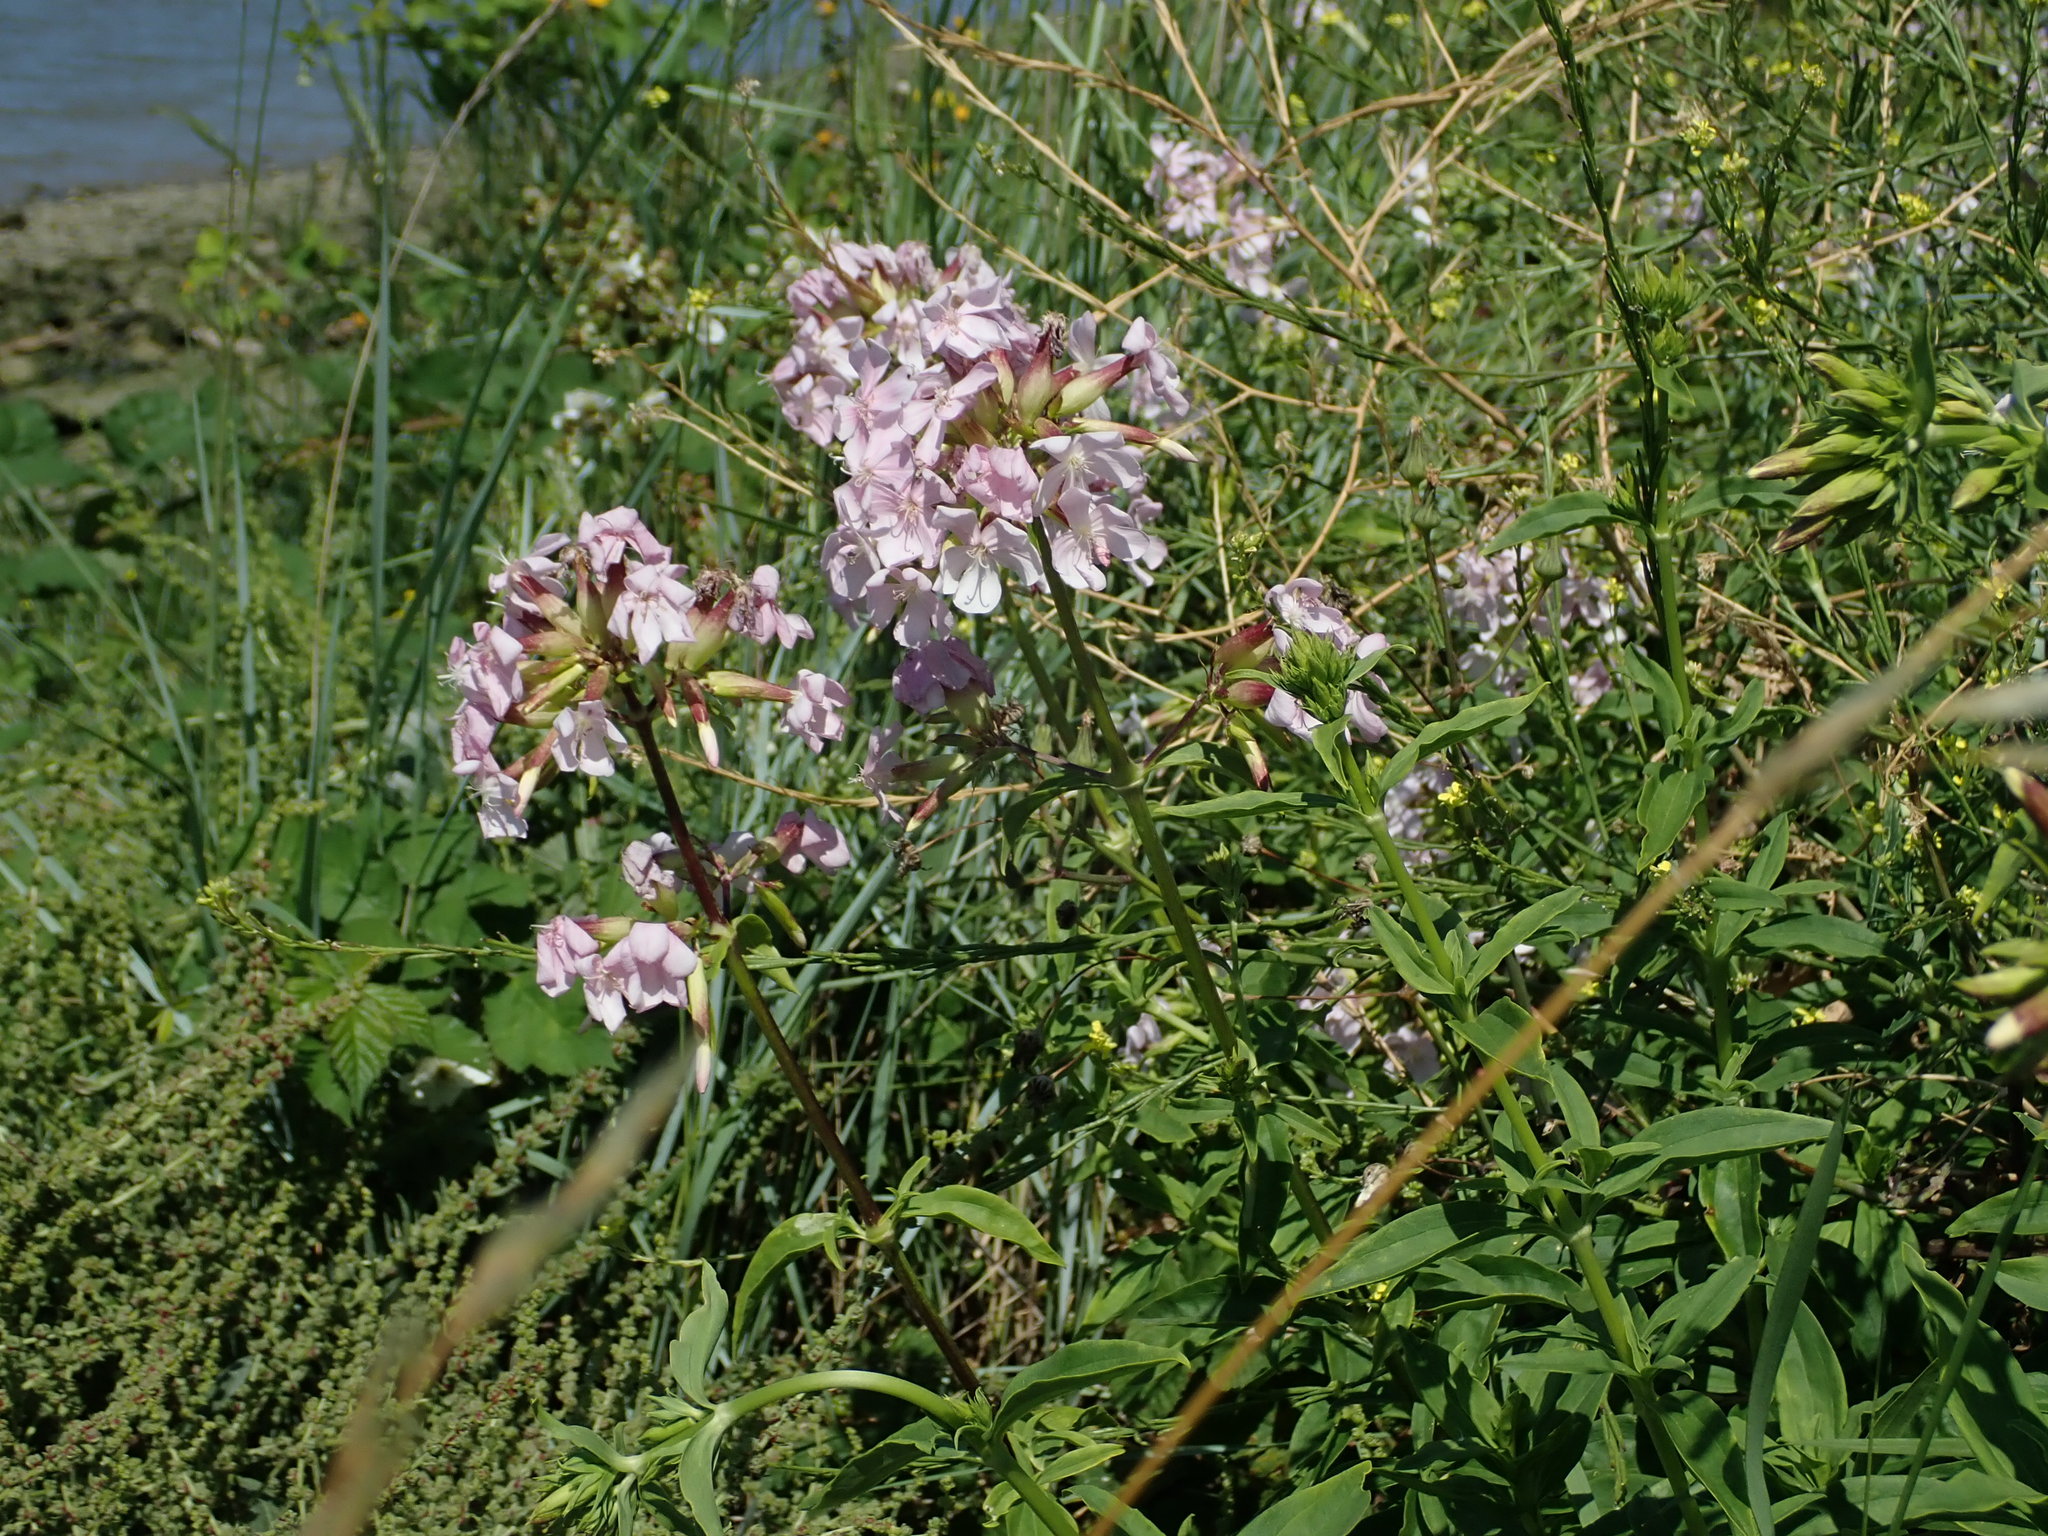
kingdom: Plantae
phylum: Tracheophyta
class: Magnoliopsida
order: Caryophyllales
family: Caryophyllaceae
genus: Saponaria
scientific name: Saponaria officinalis
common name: Soapwort
